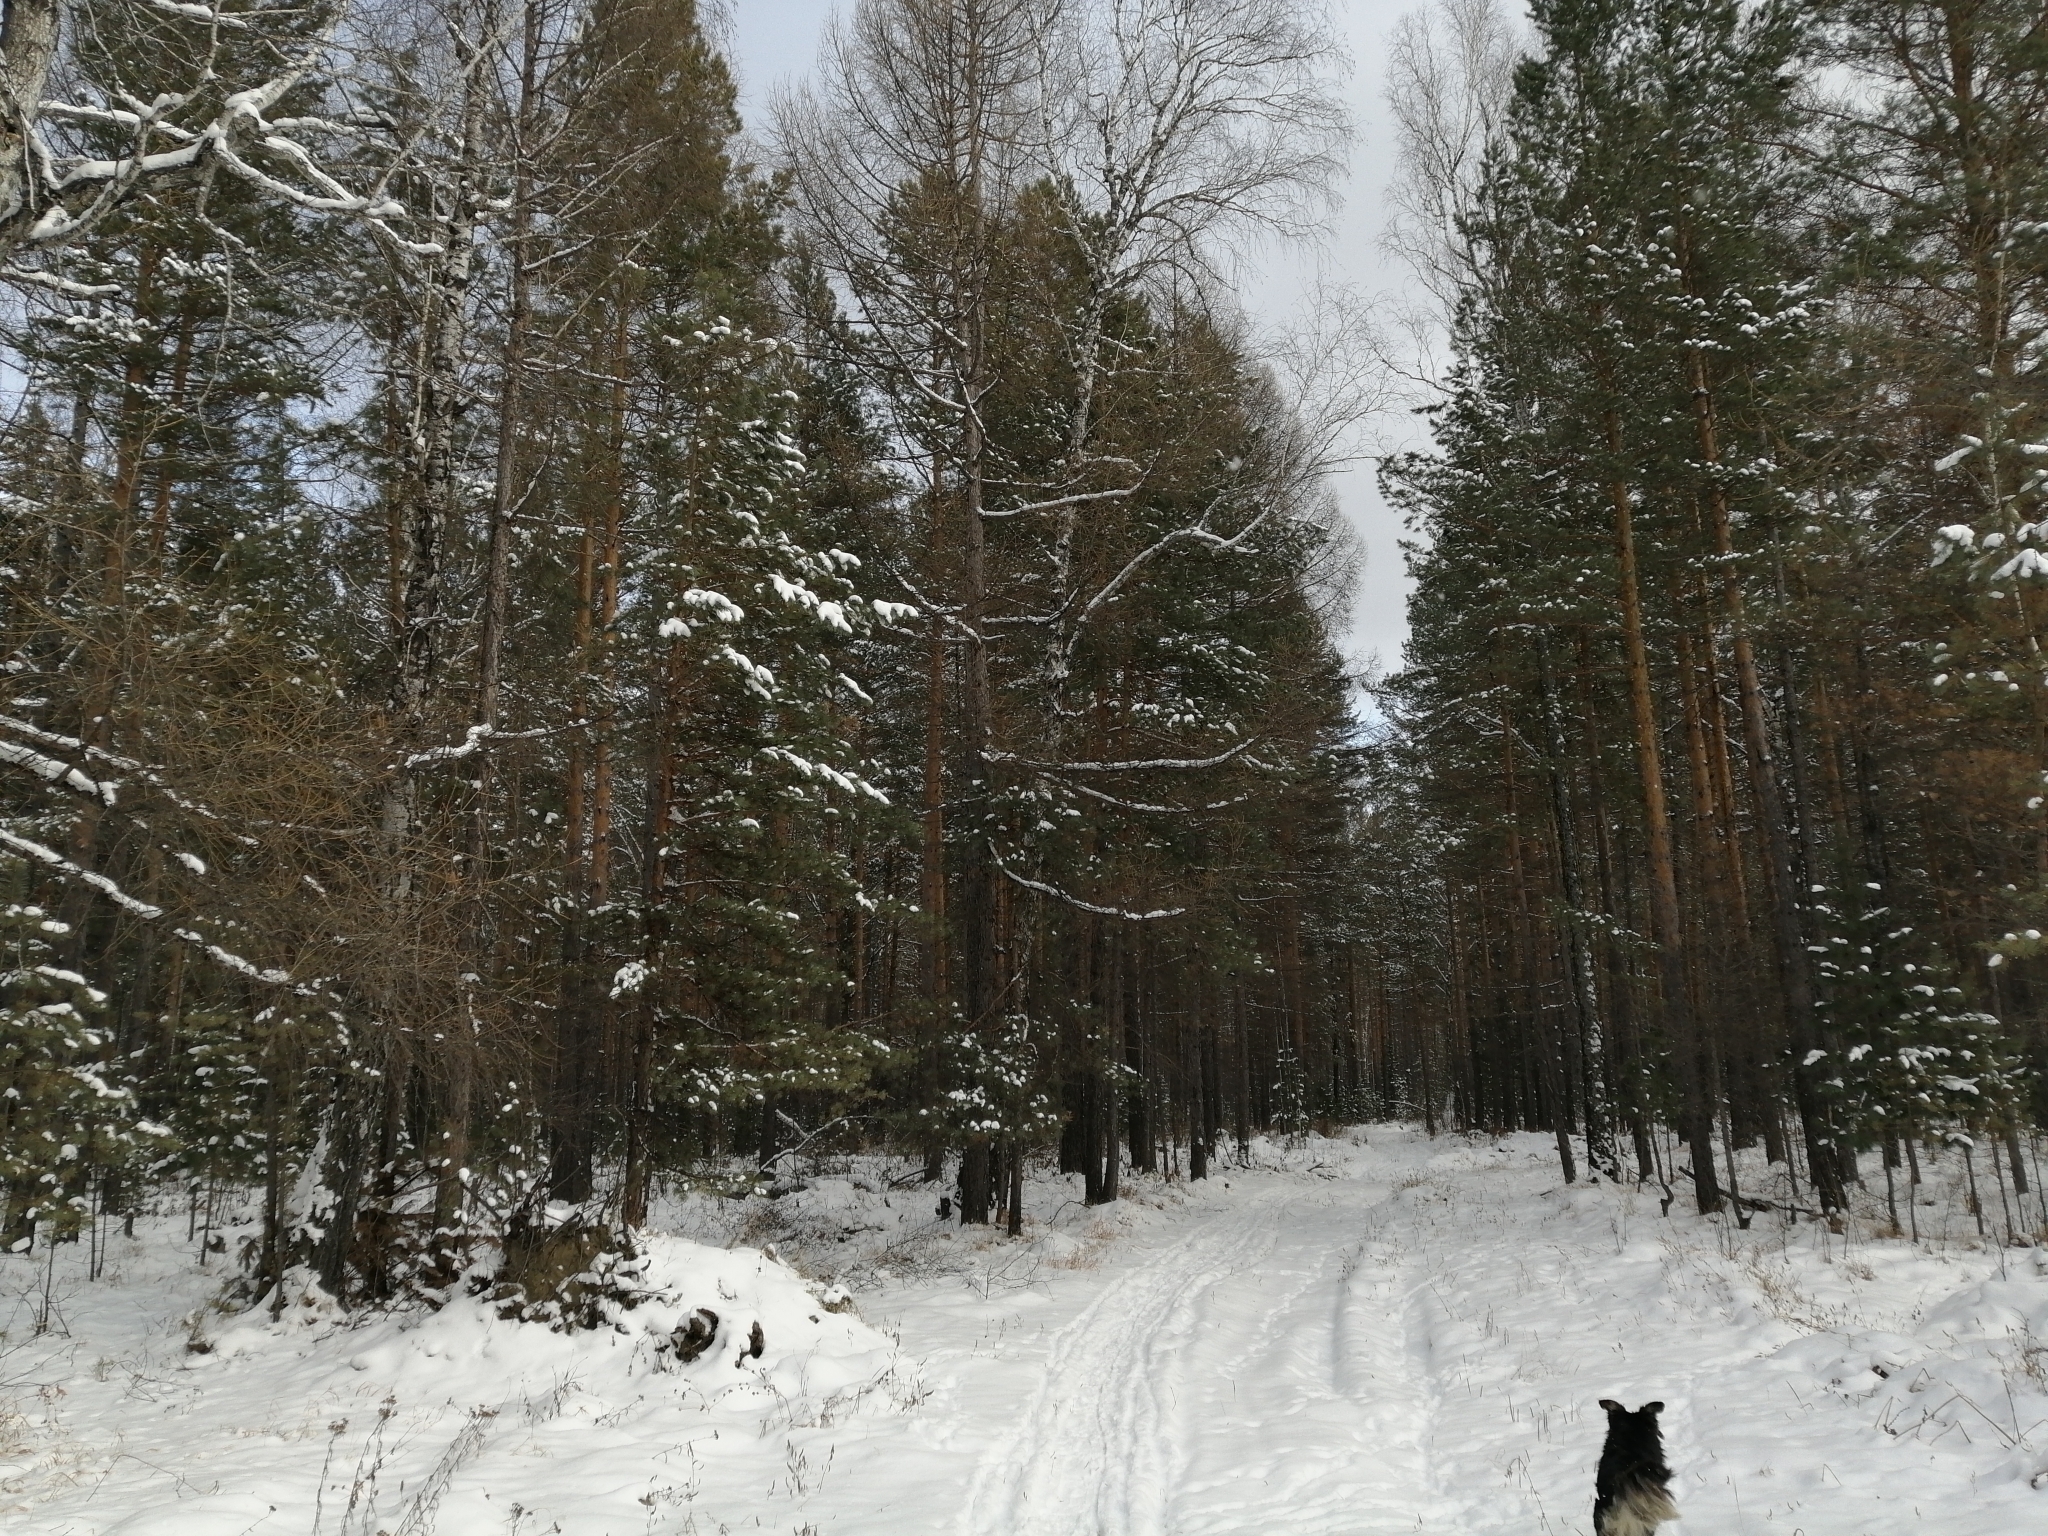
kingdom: Plantae
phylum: Tracheophyta
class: Pinopsida
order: Pinales
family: Pinaceae
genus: Pinus
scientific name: Pinus sylvestris
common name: Scots pine
